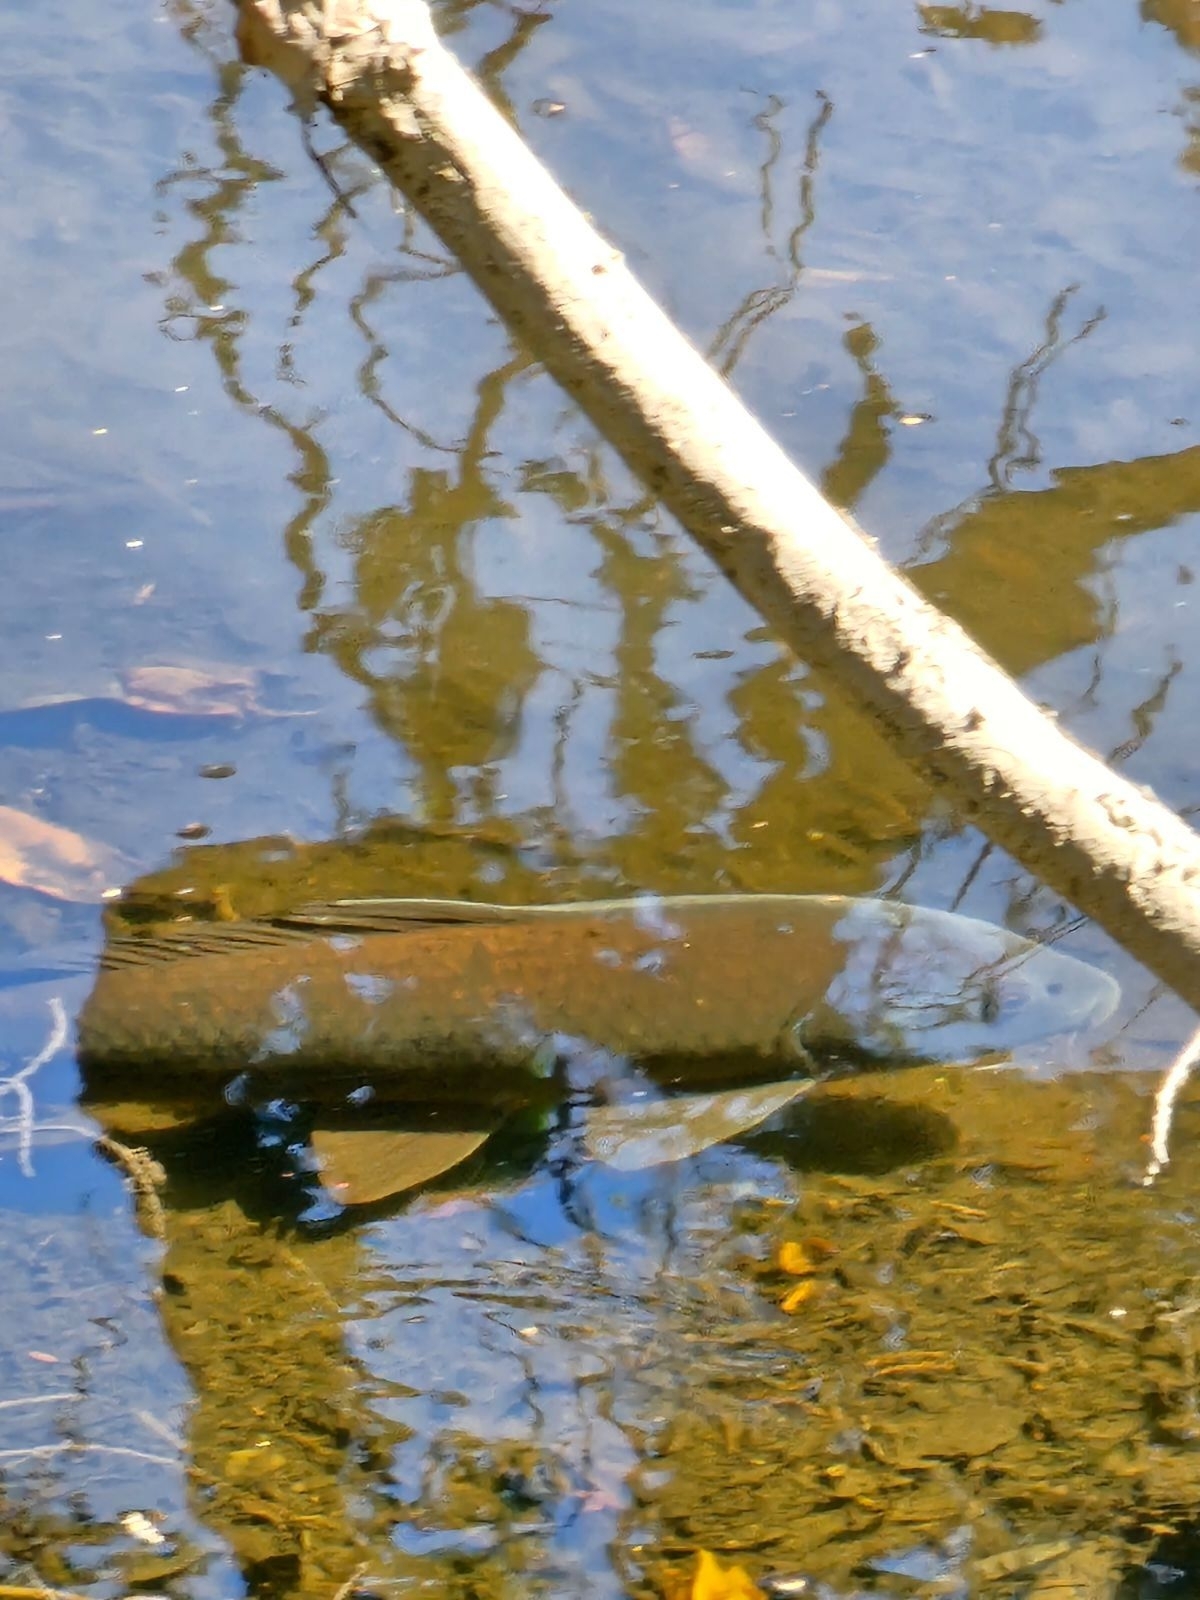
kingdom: Animalia
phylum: Chordata
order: Cypriniformes
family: Cyprinidae
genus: Cyprinus
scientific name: Cyprinus carpio
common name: Common carp
